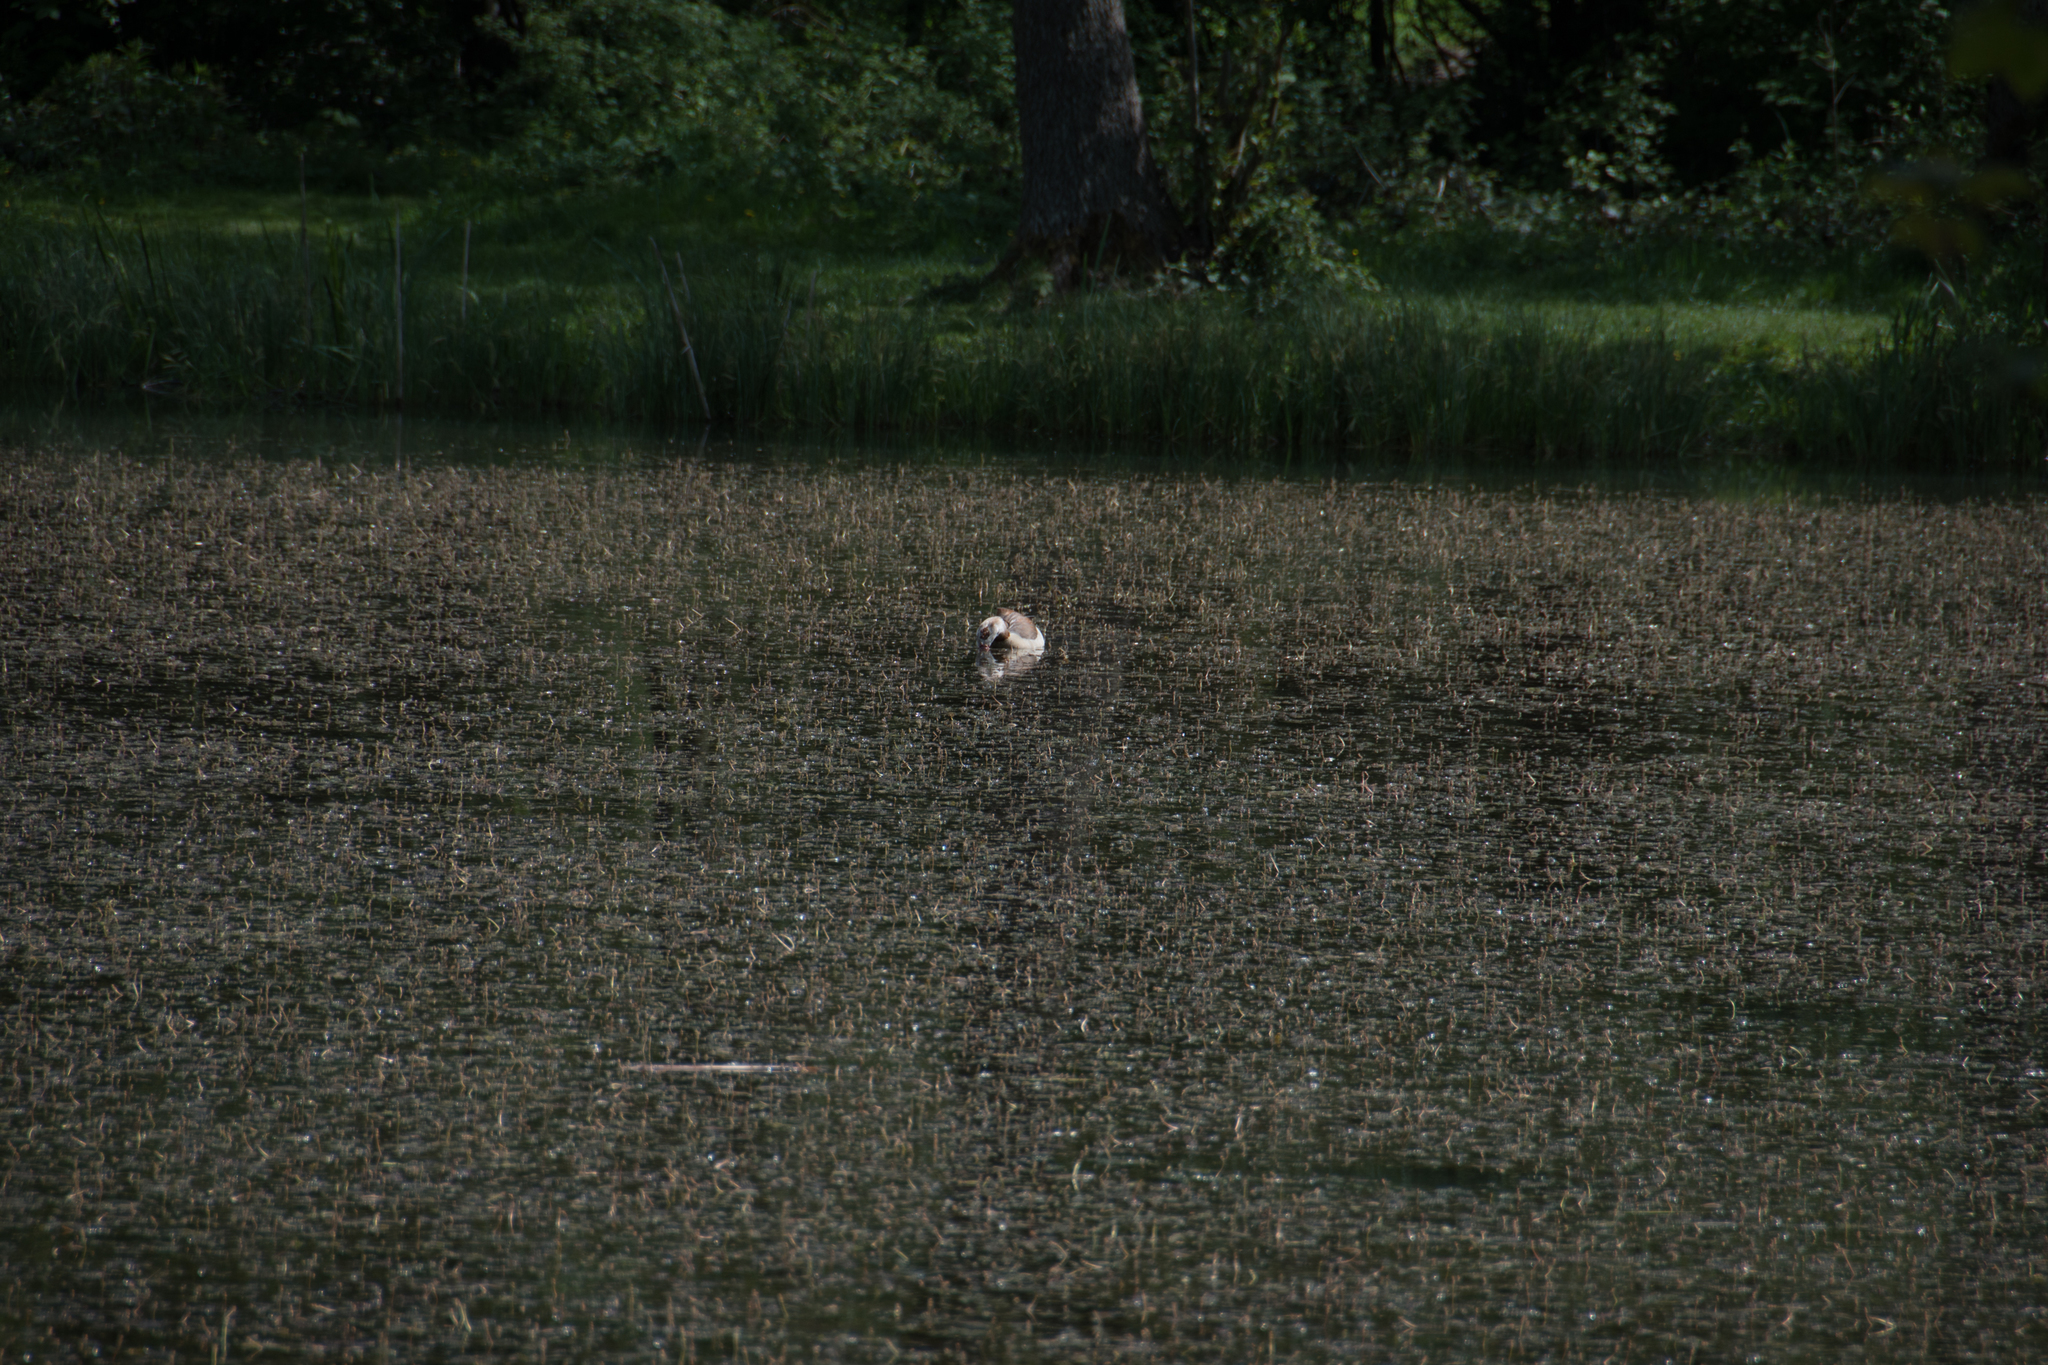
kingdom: Animalia
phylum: Chordata
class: Aves
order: Anseriformes
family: Anatidae
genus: Alopochen
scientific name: Alopochen aegyptiaca
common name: Egyptian goose
